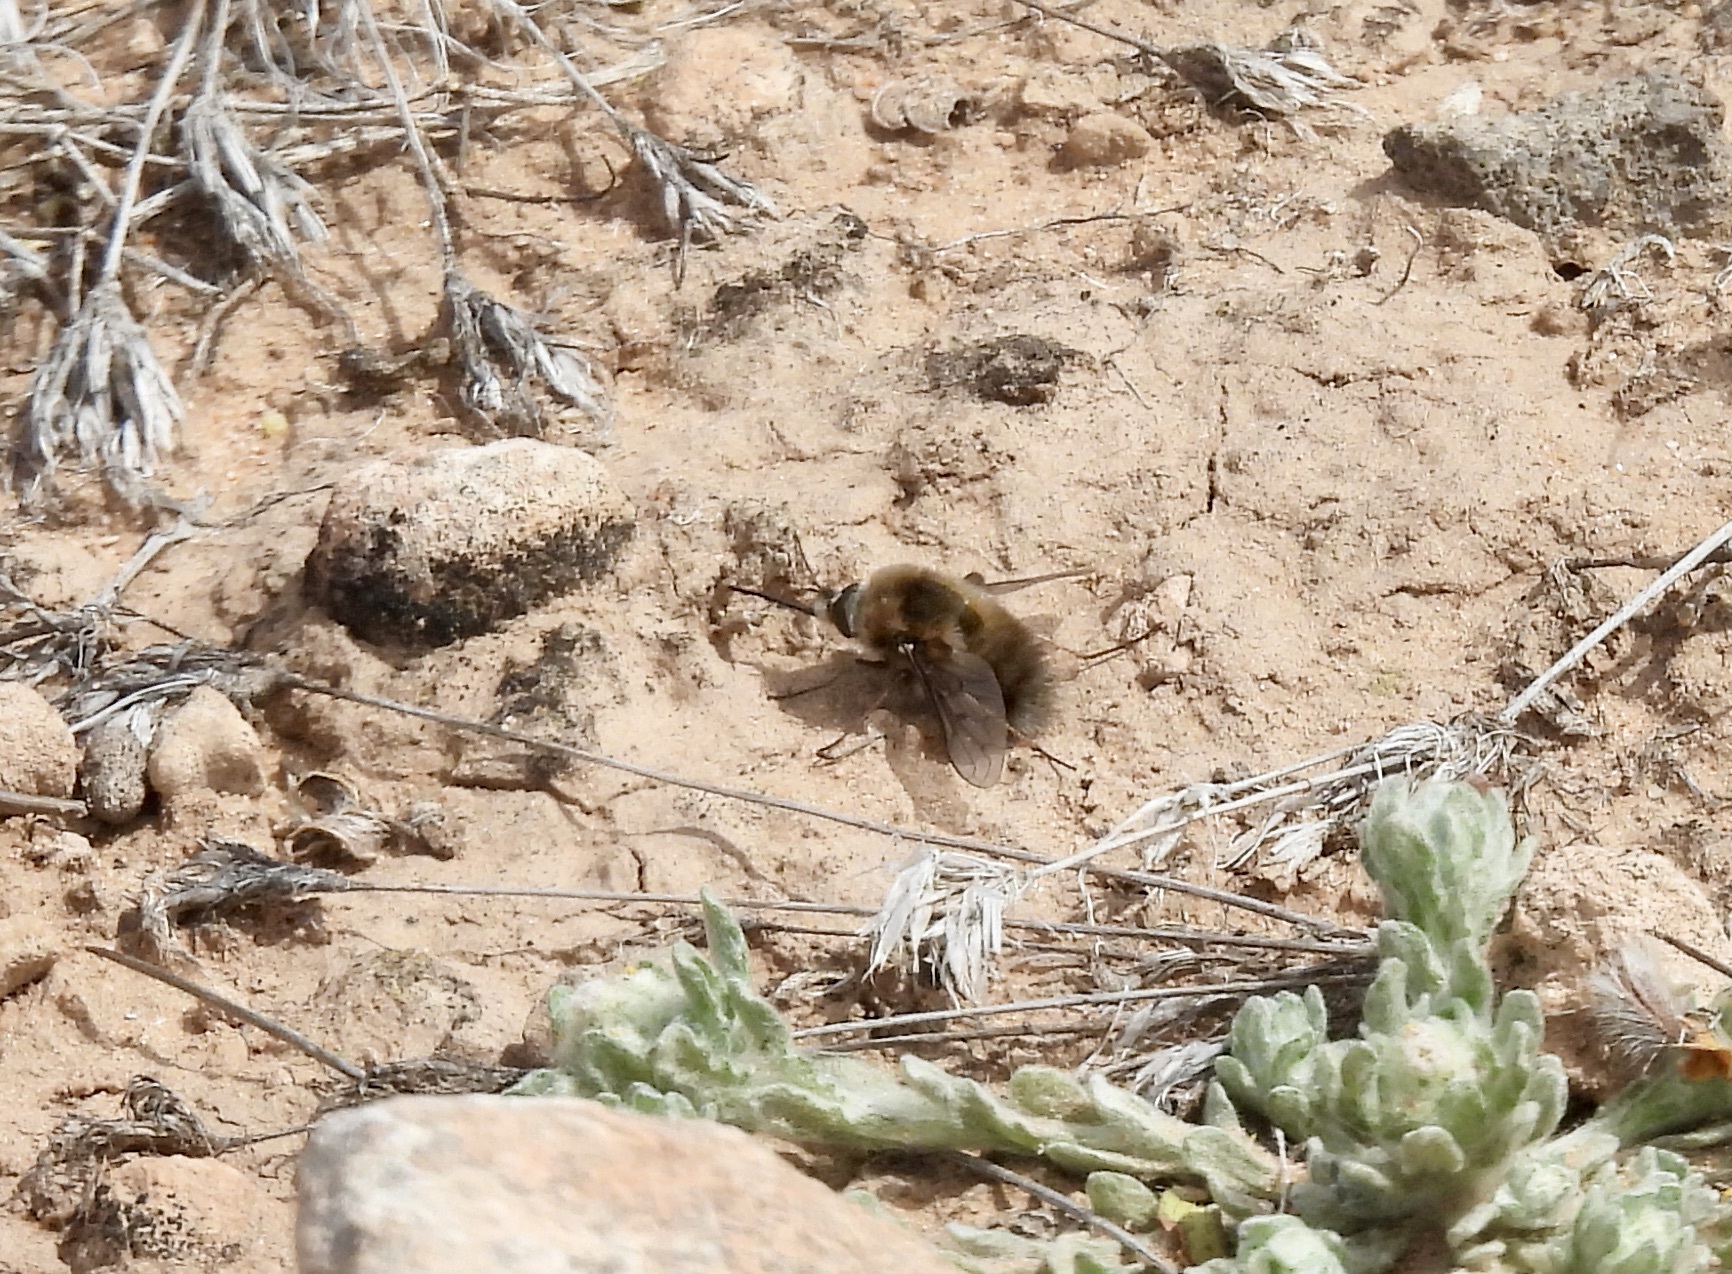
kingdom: Animalia
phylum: Arthropoda
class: Insecta
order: Diptera
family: Bombyliidae
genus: Bombylius
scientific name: Bombylius
